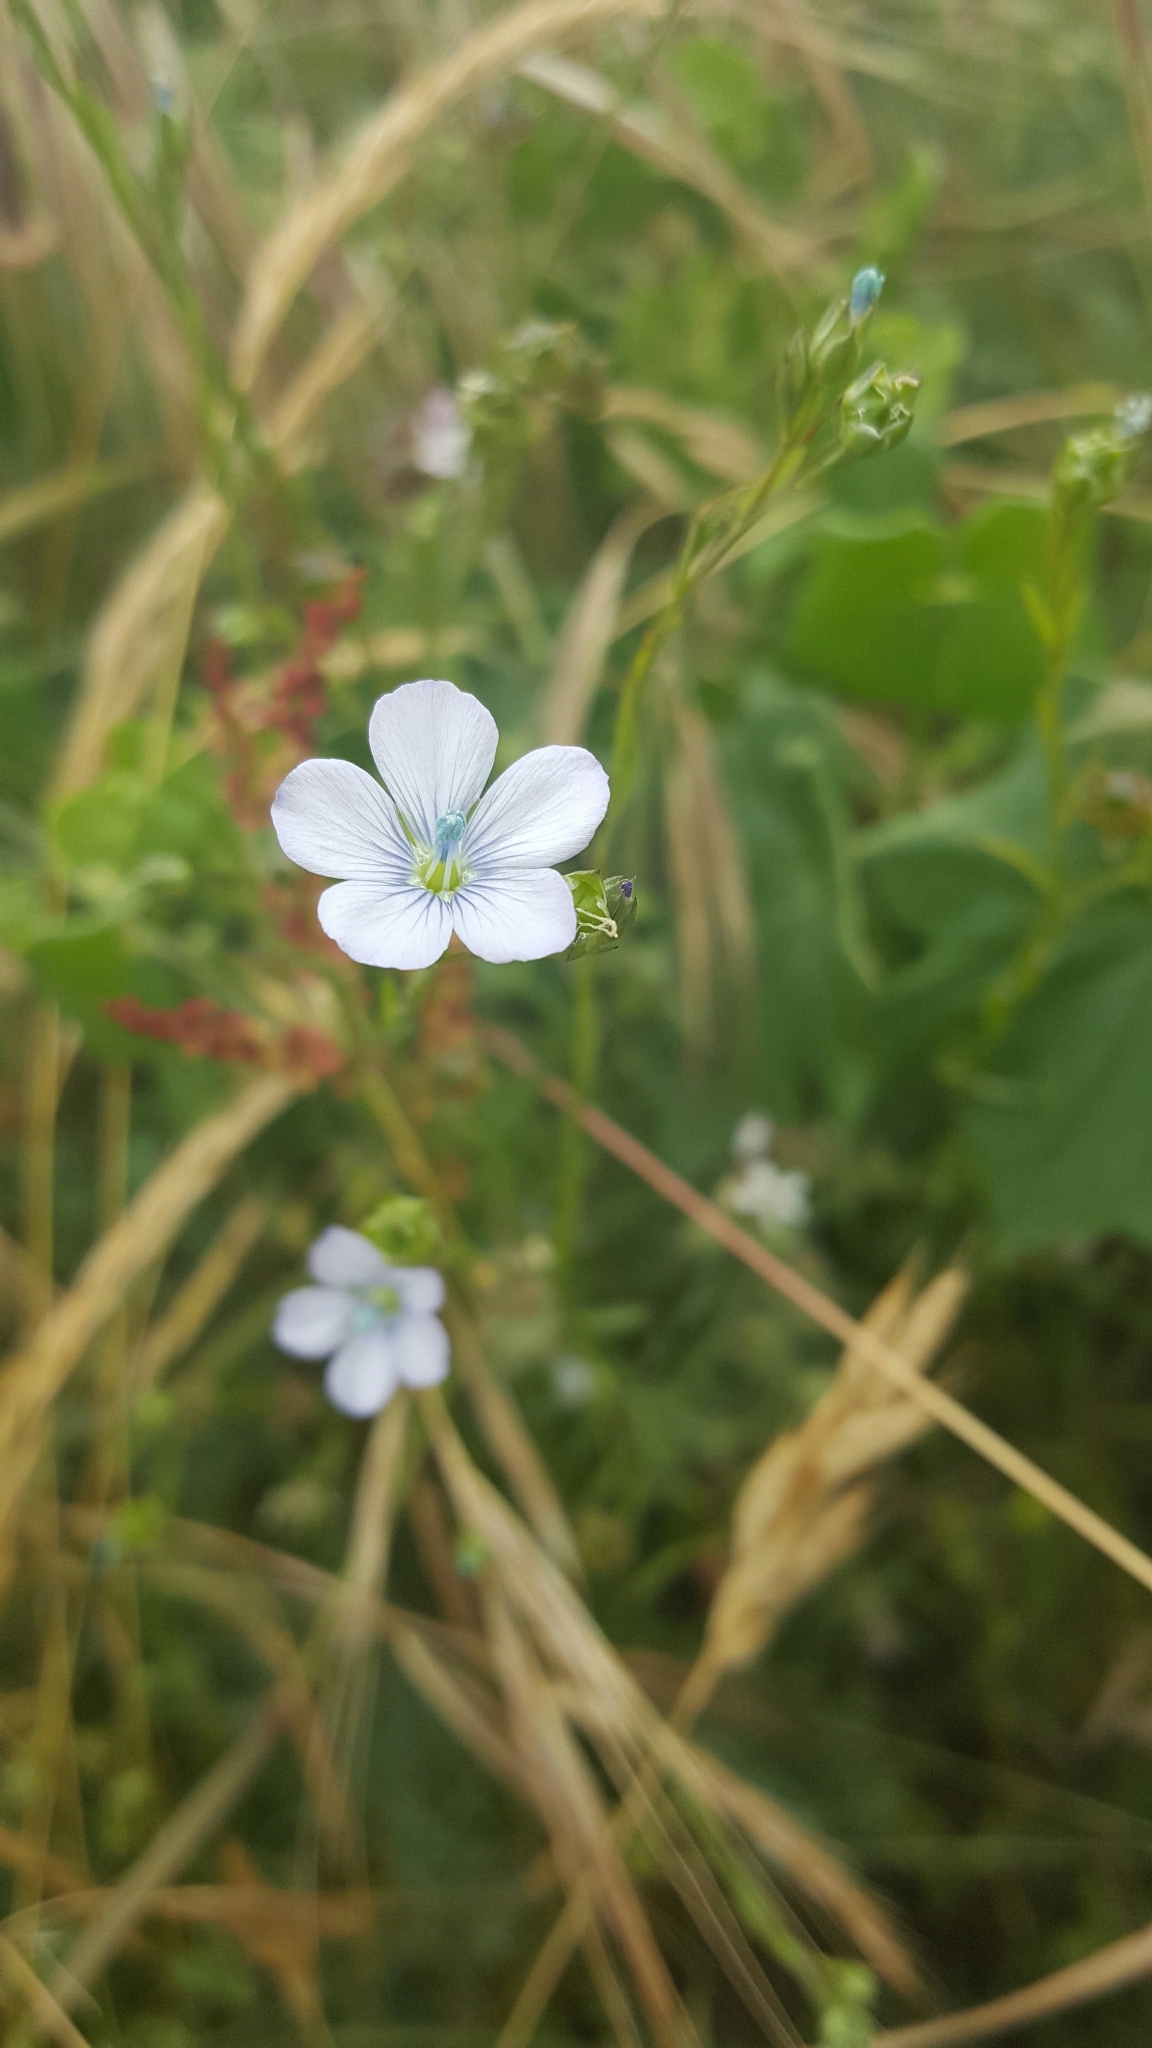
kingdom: Plantae
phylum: Tracheophyta
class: Magnoliopsida
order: Malpighiales
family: Linaceae
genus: Linum
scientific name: Linum bienne
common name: Pale flax
